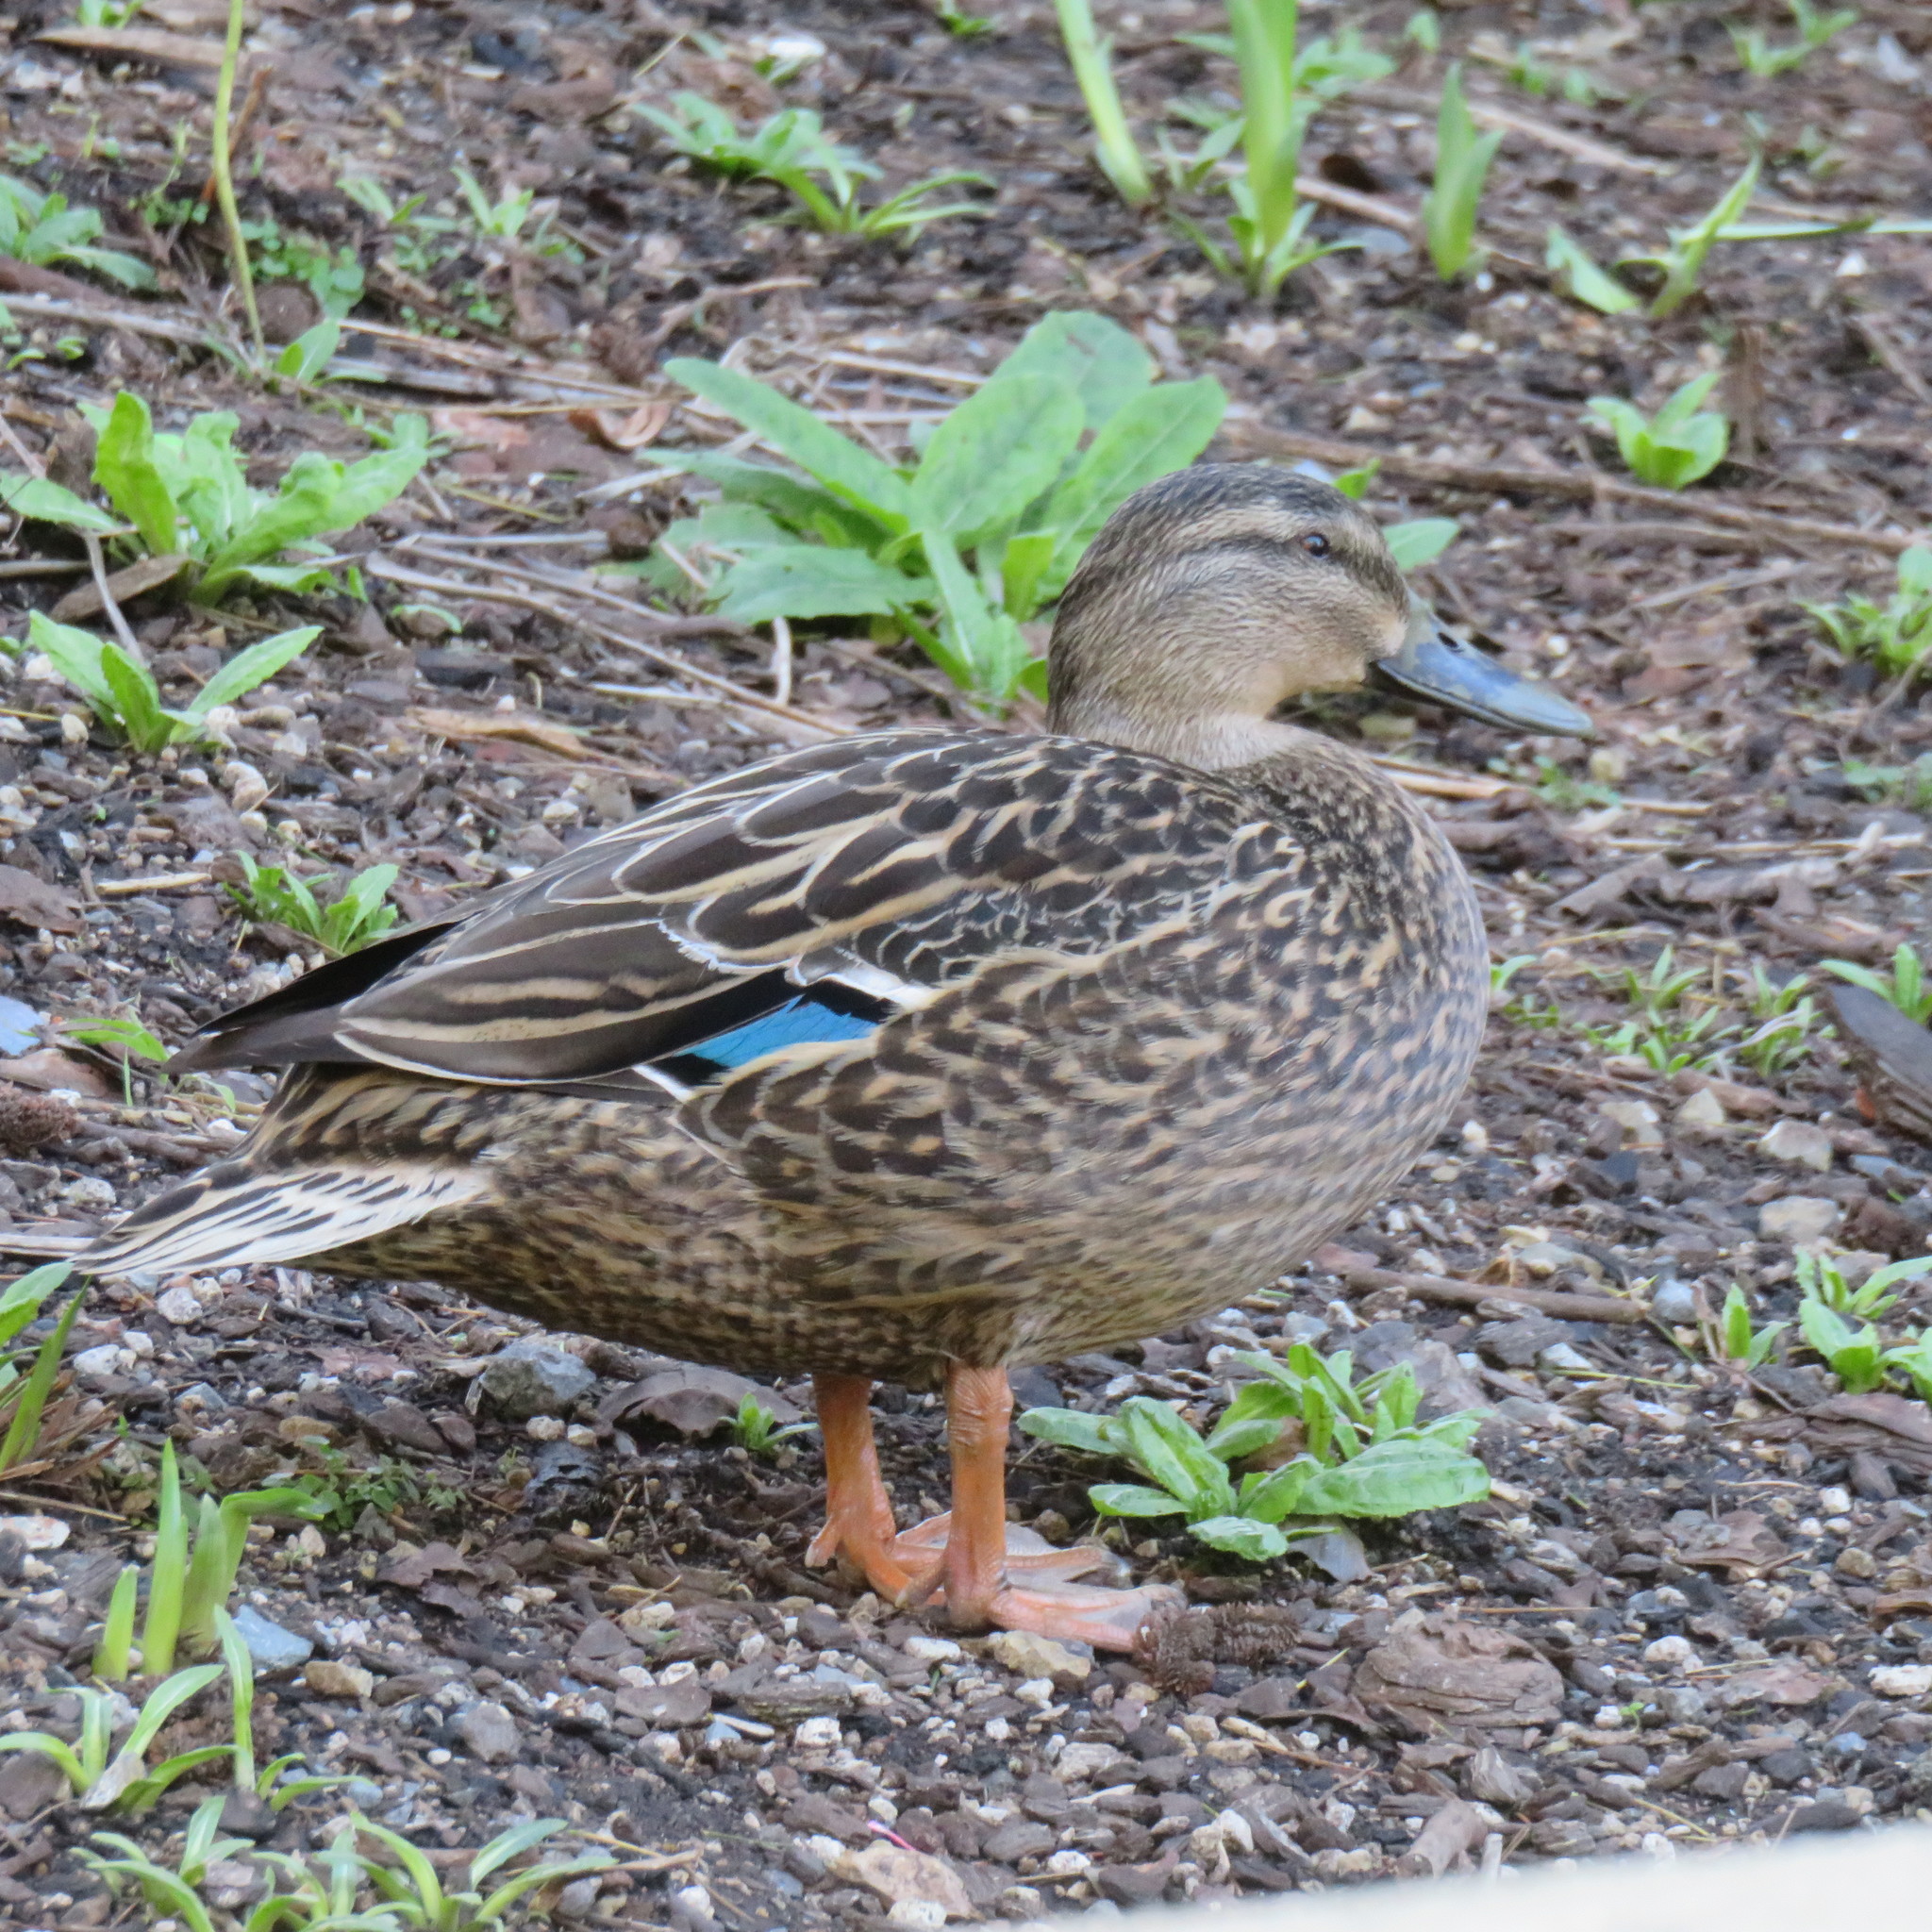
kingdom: Animalia
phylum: Chordata
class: Aves
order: Anseriformes
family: Anatidae
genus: Anas
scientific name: Anas
